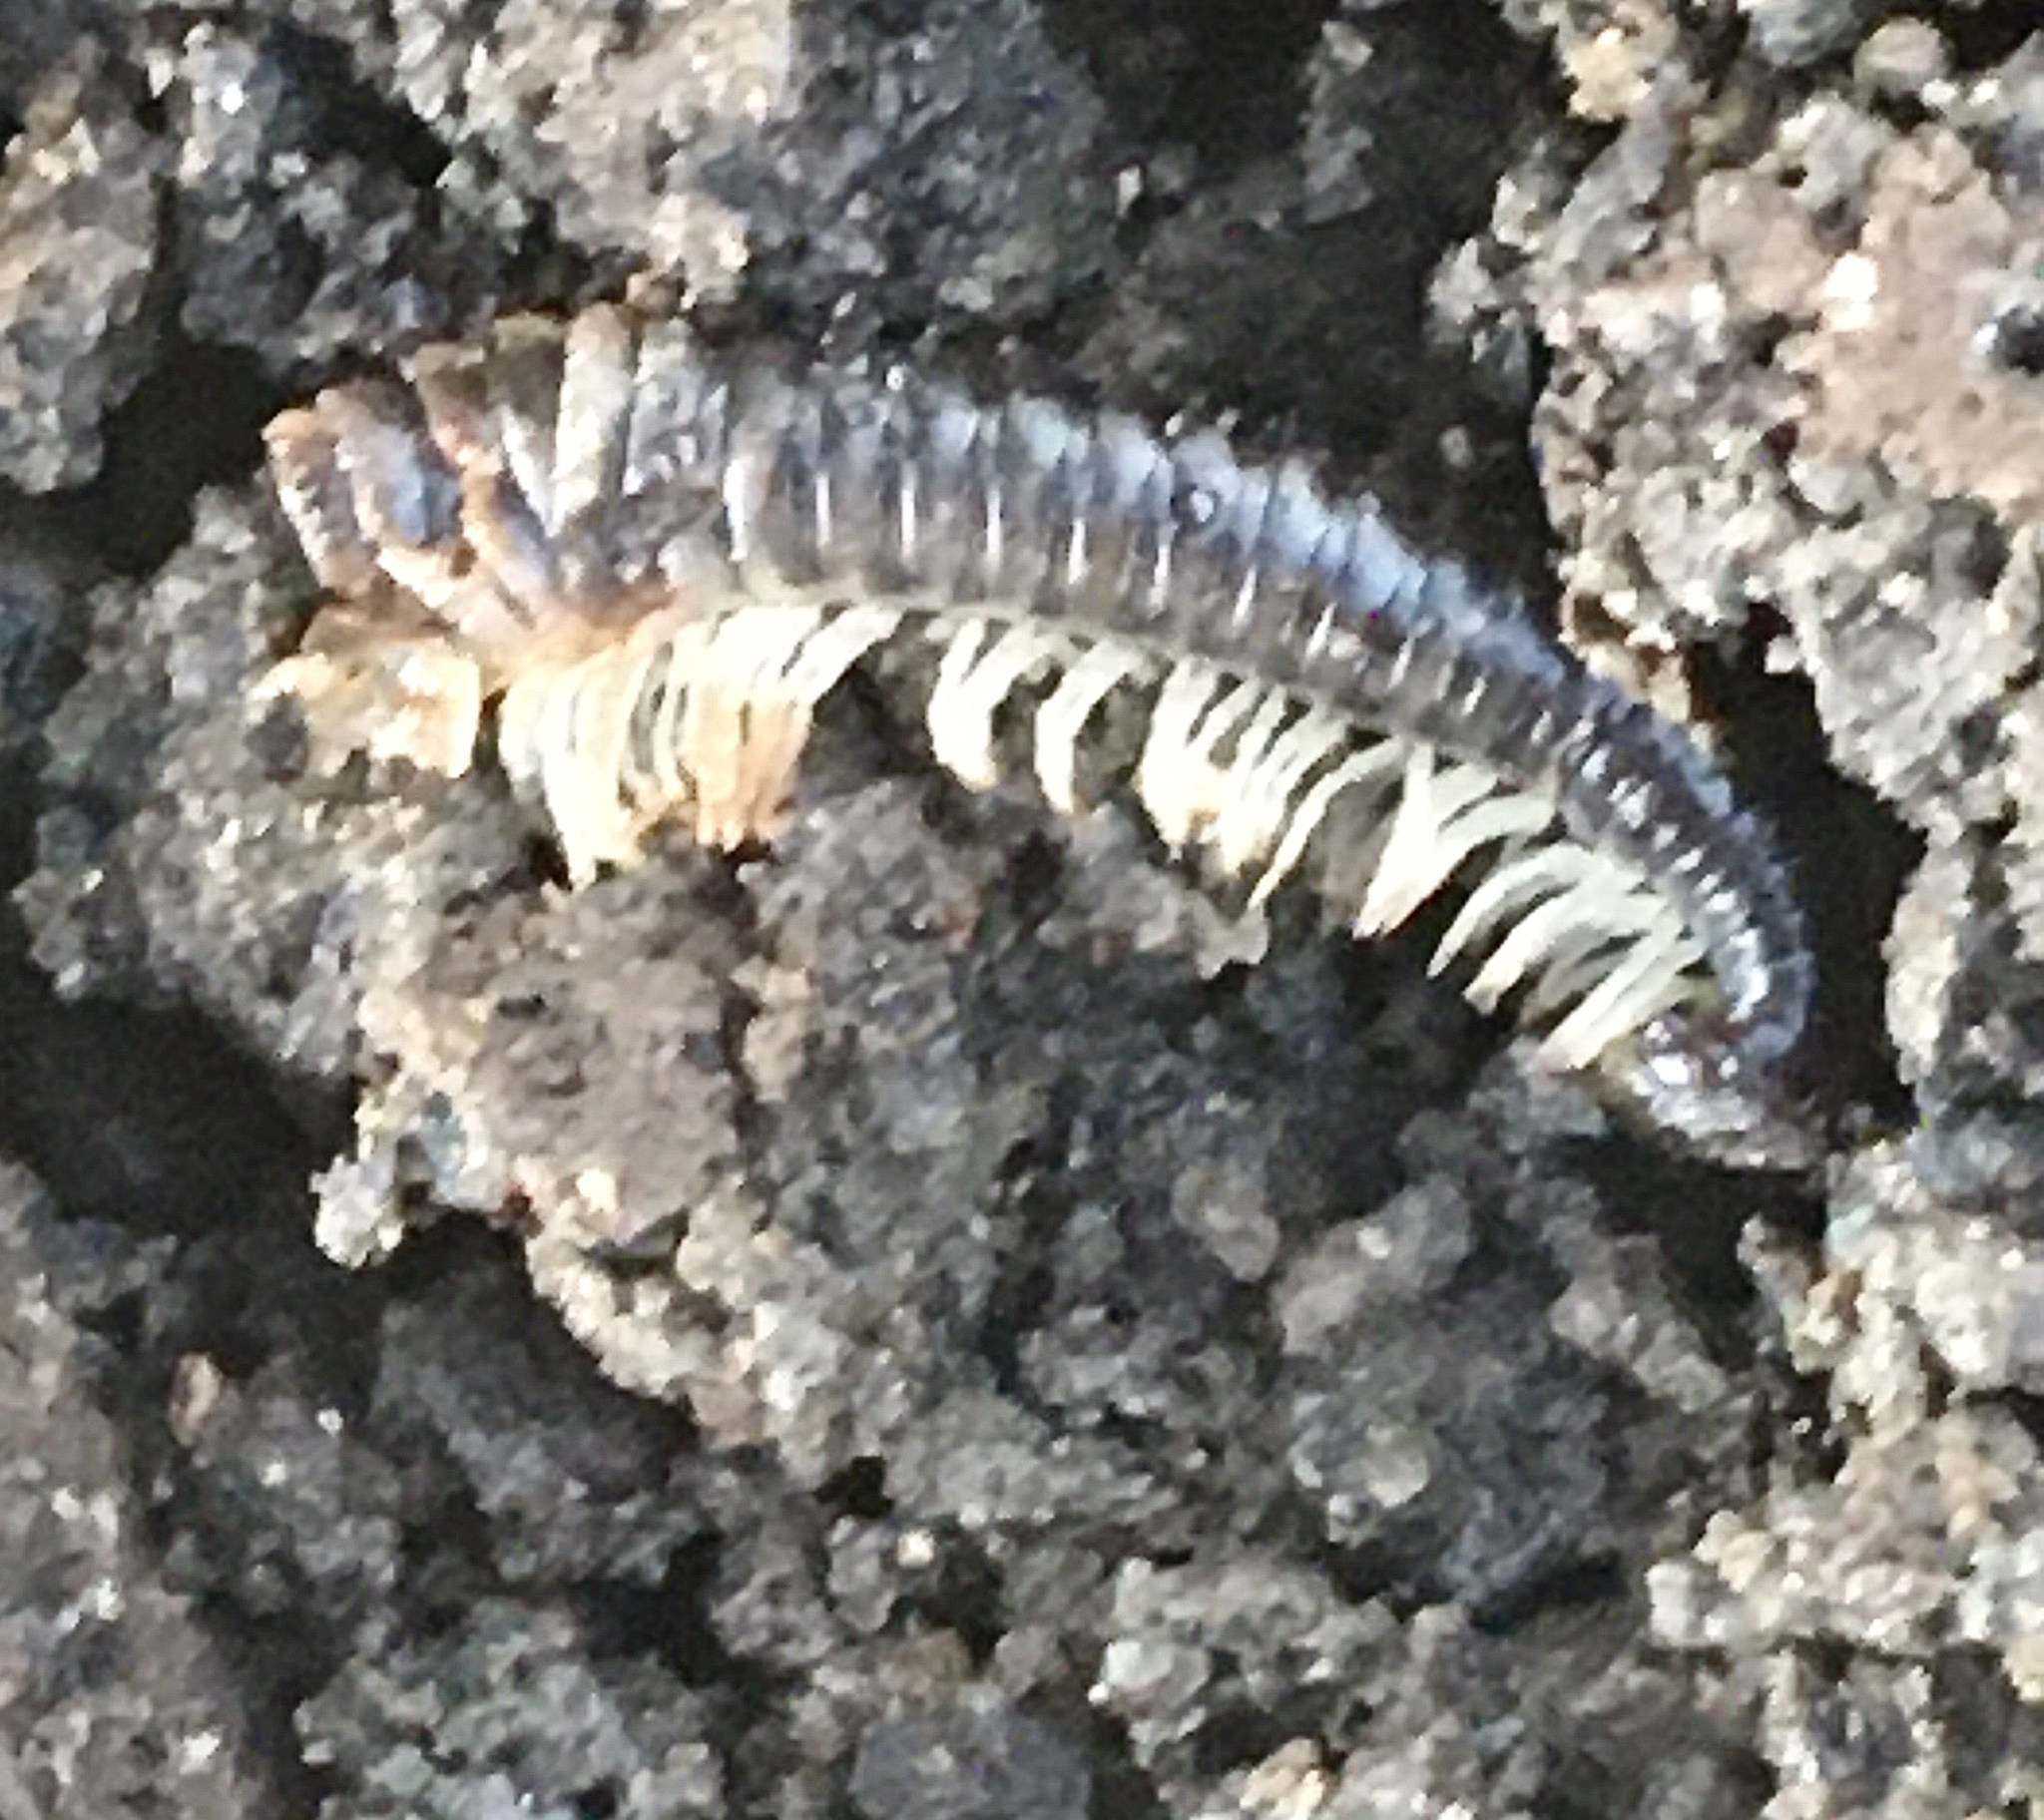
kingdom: Animalia
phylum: Arthropoda
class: Diplopoda
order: Julida
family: Julidae
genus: Tachypodoiulus
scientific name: Tachypodoiulus niger
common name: White-legged snake millipede
